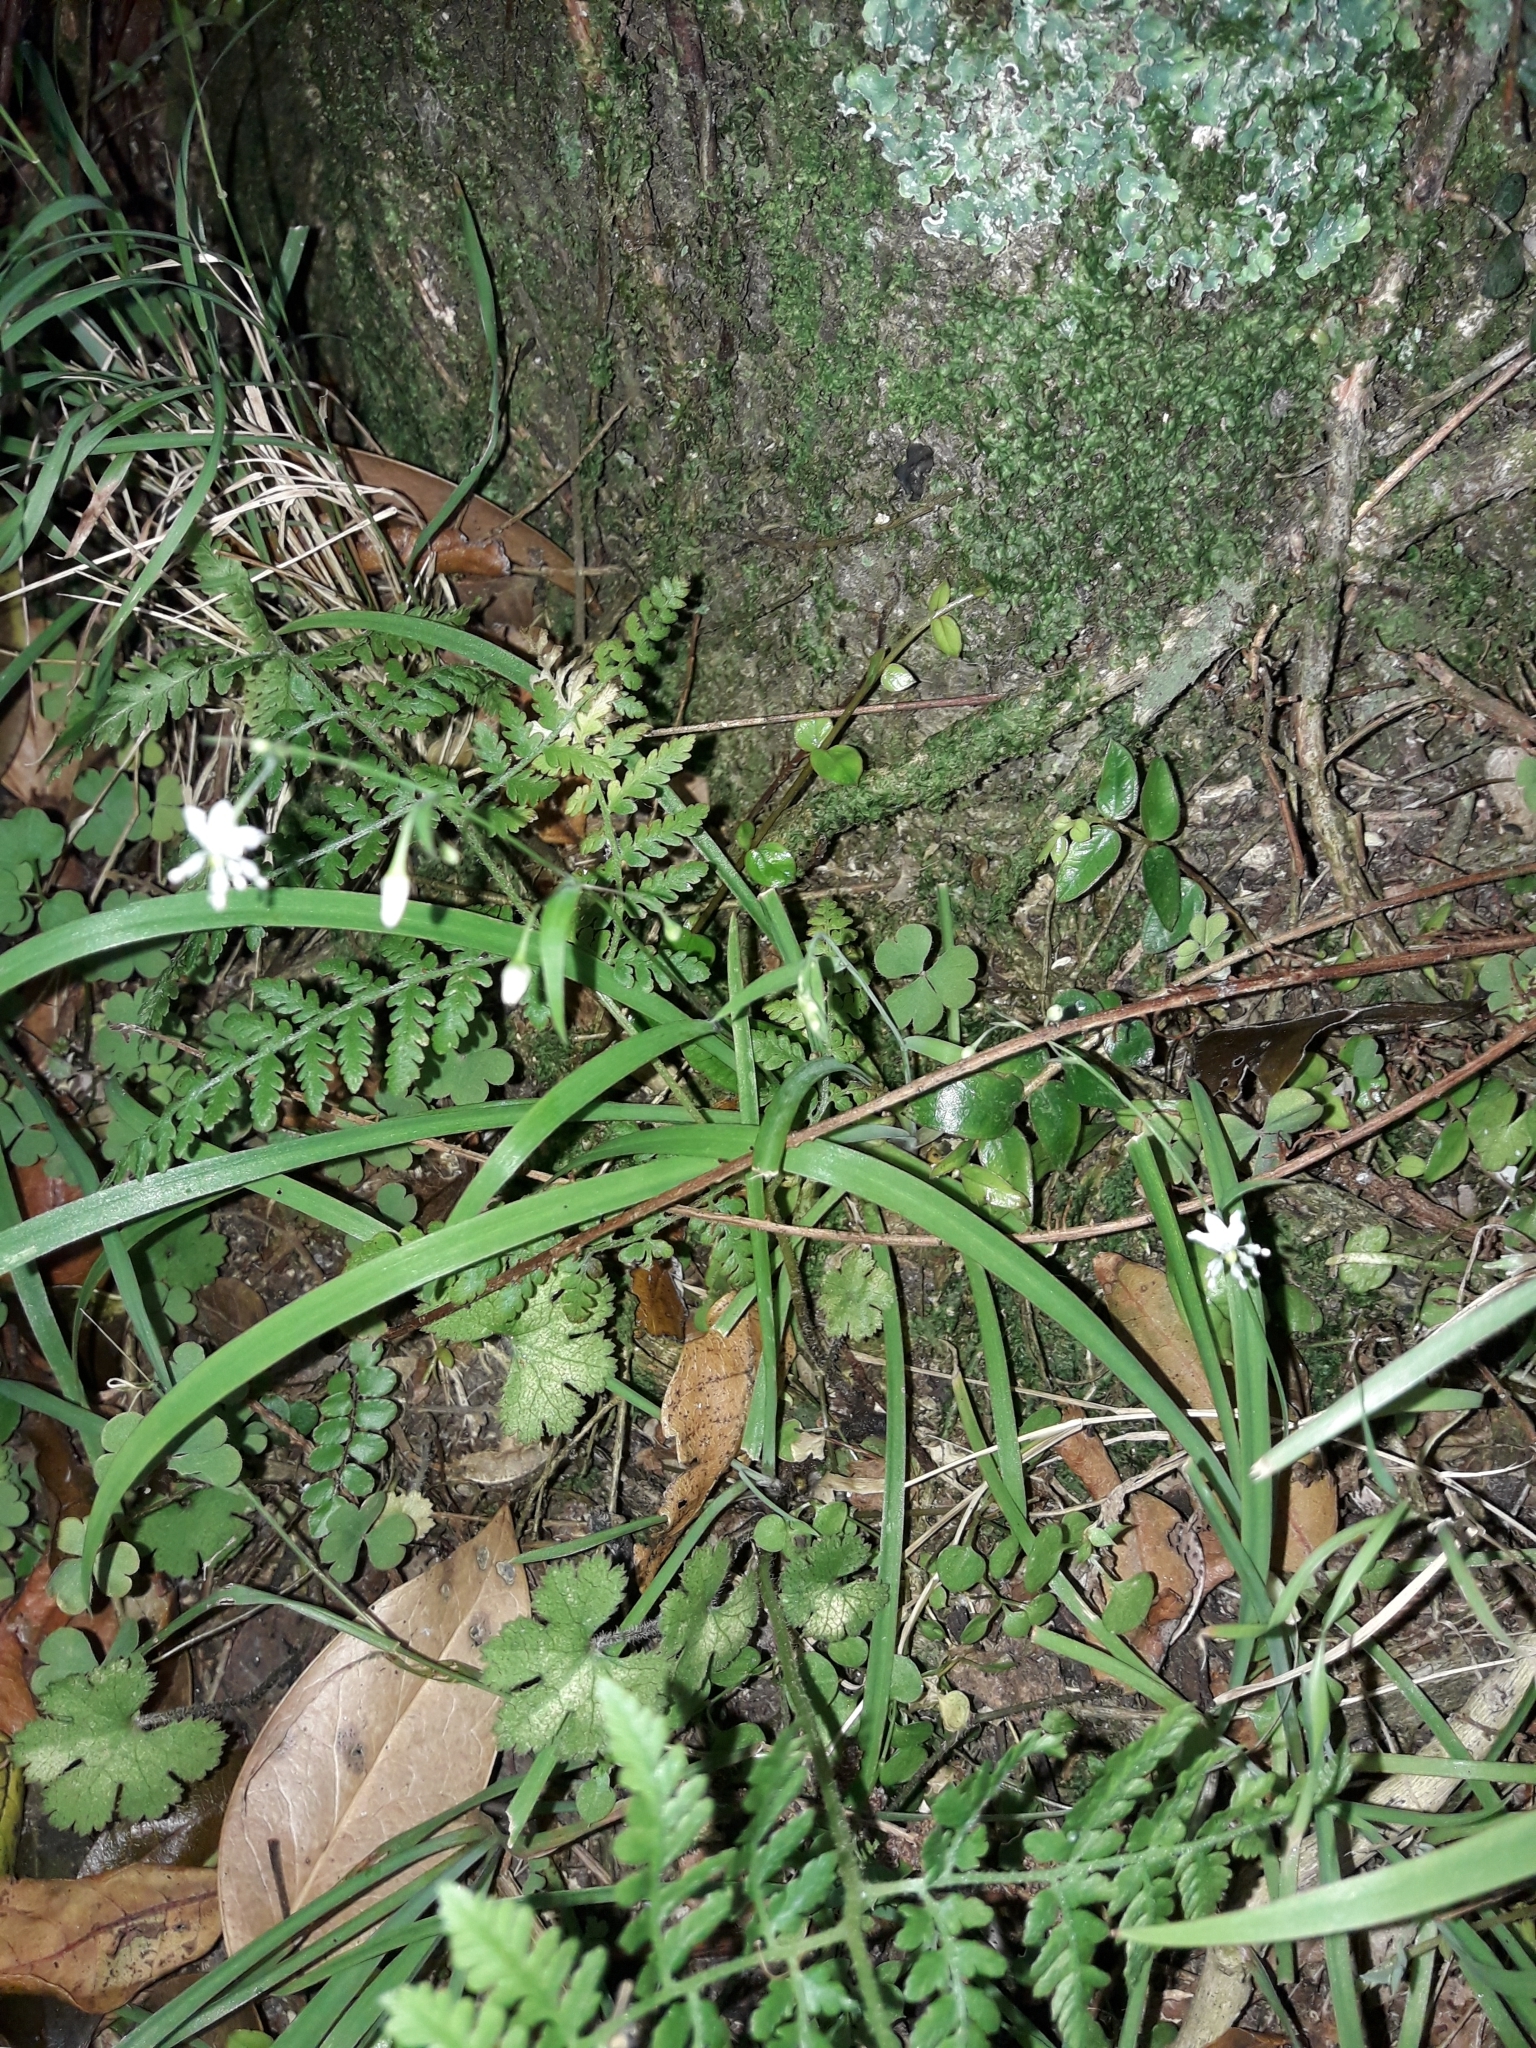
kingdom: Plantae
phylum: Tracheophyta
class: Liliopsida
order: Asparagales
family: Asparagaceae
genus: Arthropodium
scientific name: Arthropodium candidum
